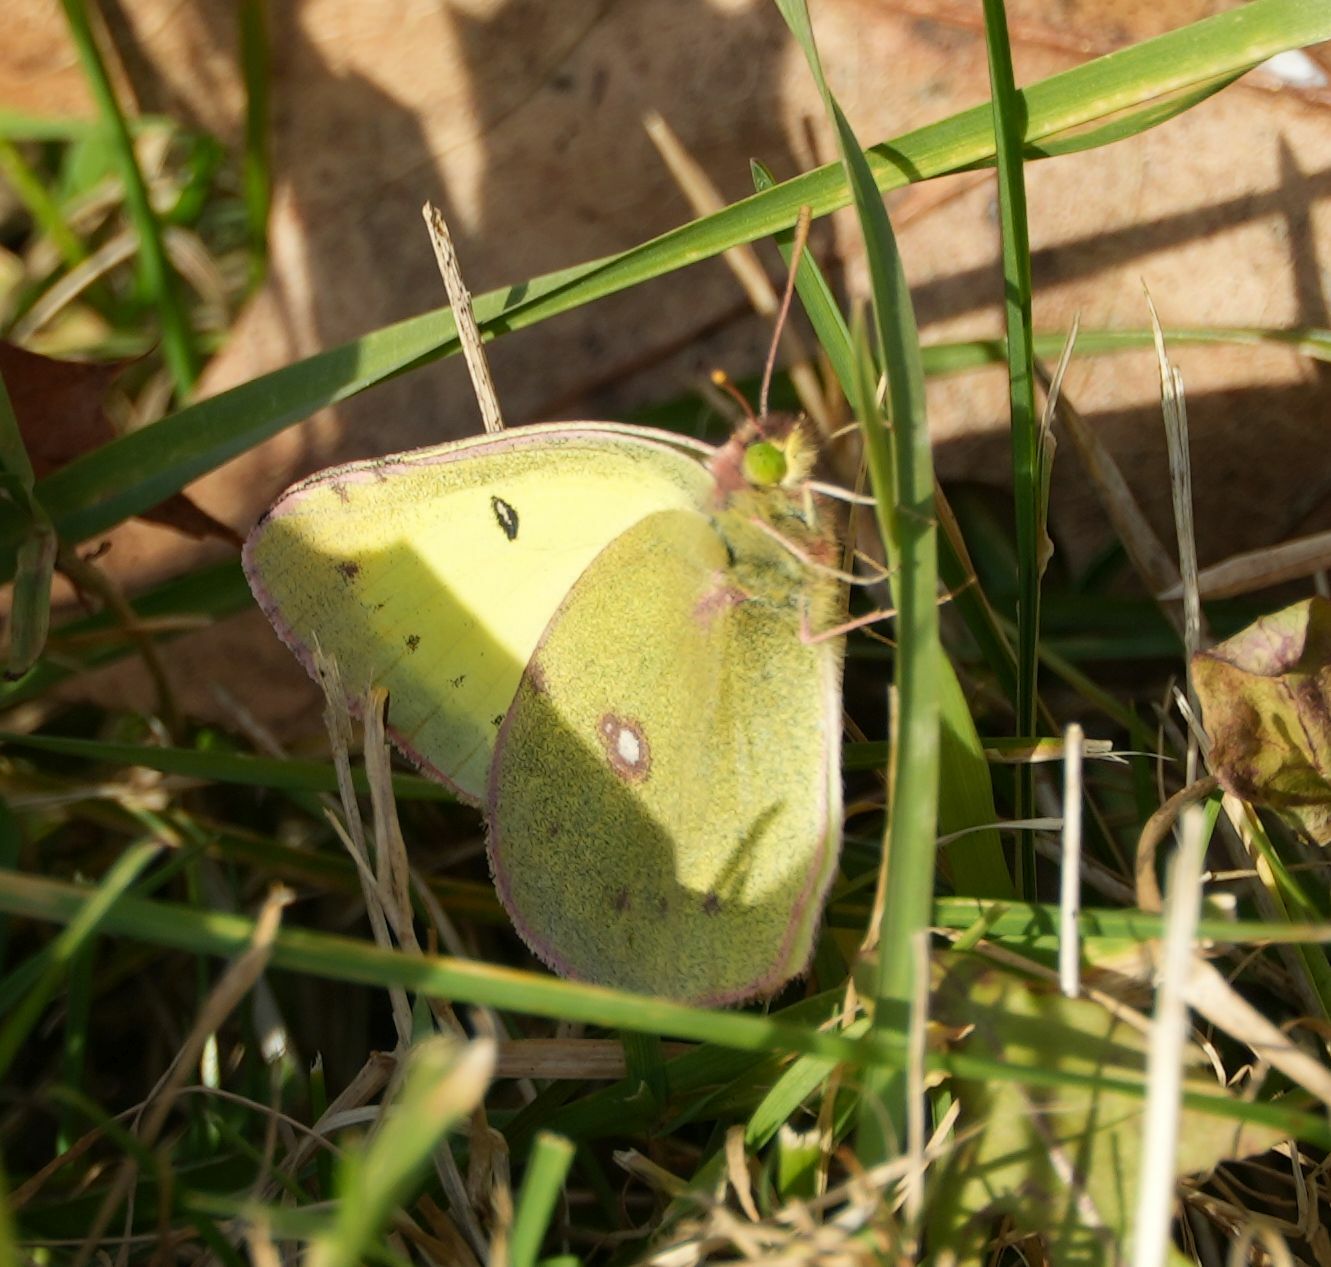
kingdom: Animalia
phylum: Arthropoda
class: Insecta
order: Lepidoptera
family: Pieridae
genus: Colias
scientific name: Colias philodice
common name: Clouded sulphur
